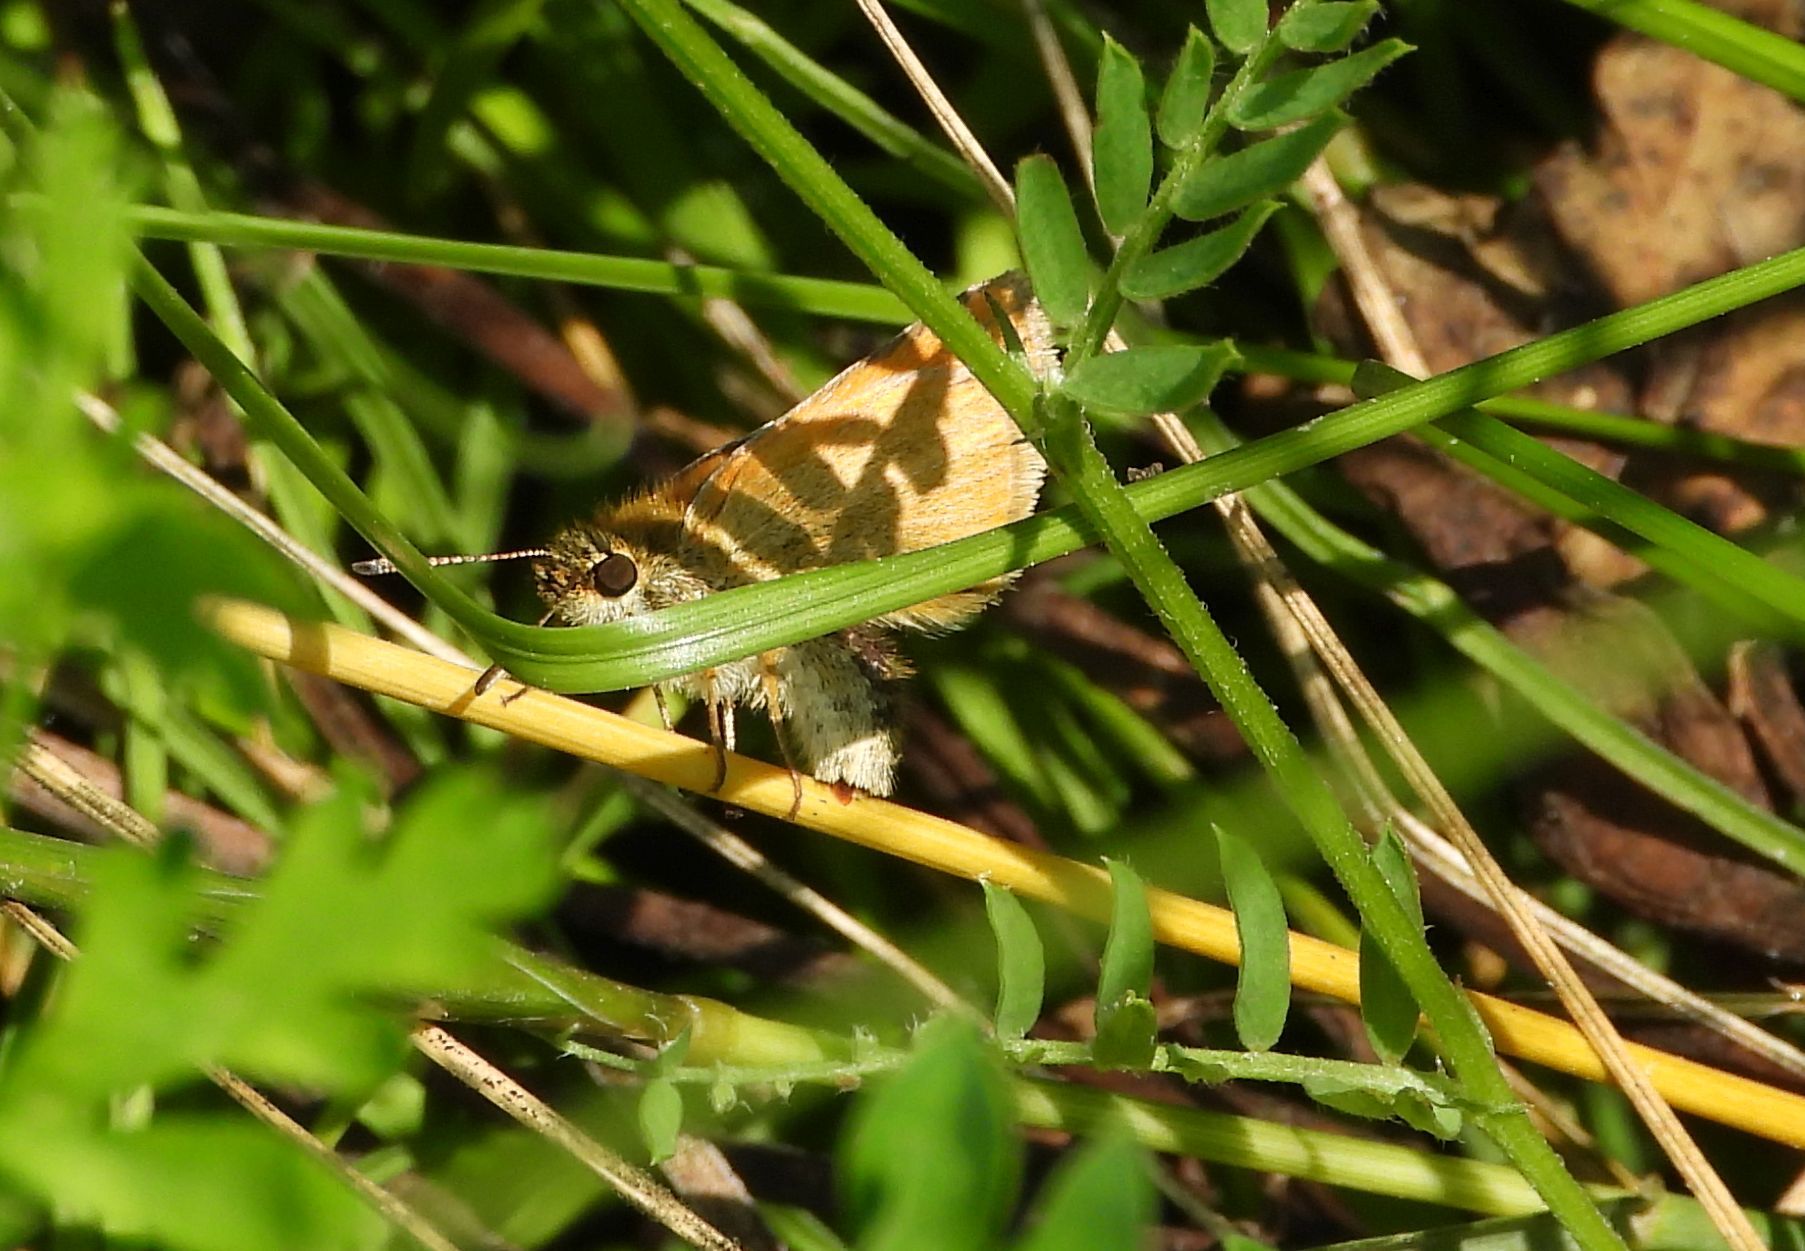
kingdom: Animalia
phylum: Arthropoda
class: Insecta
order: Lepidoptera
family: Hesperiidae
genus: Thymelicus
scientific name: Thymelicus lineola
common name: Essex skipper
